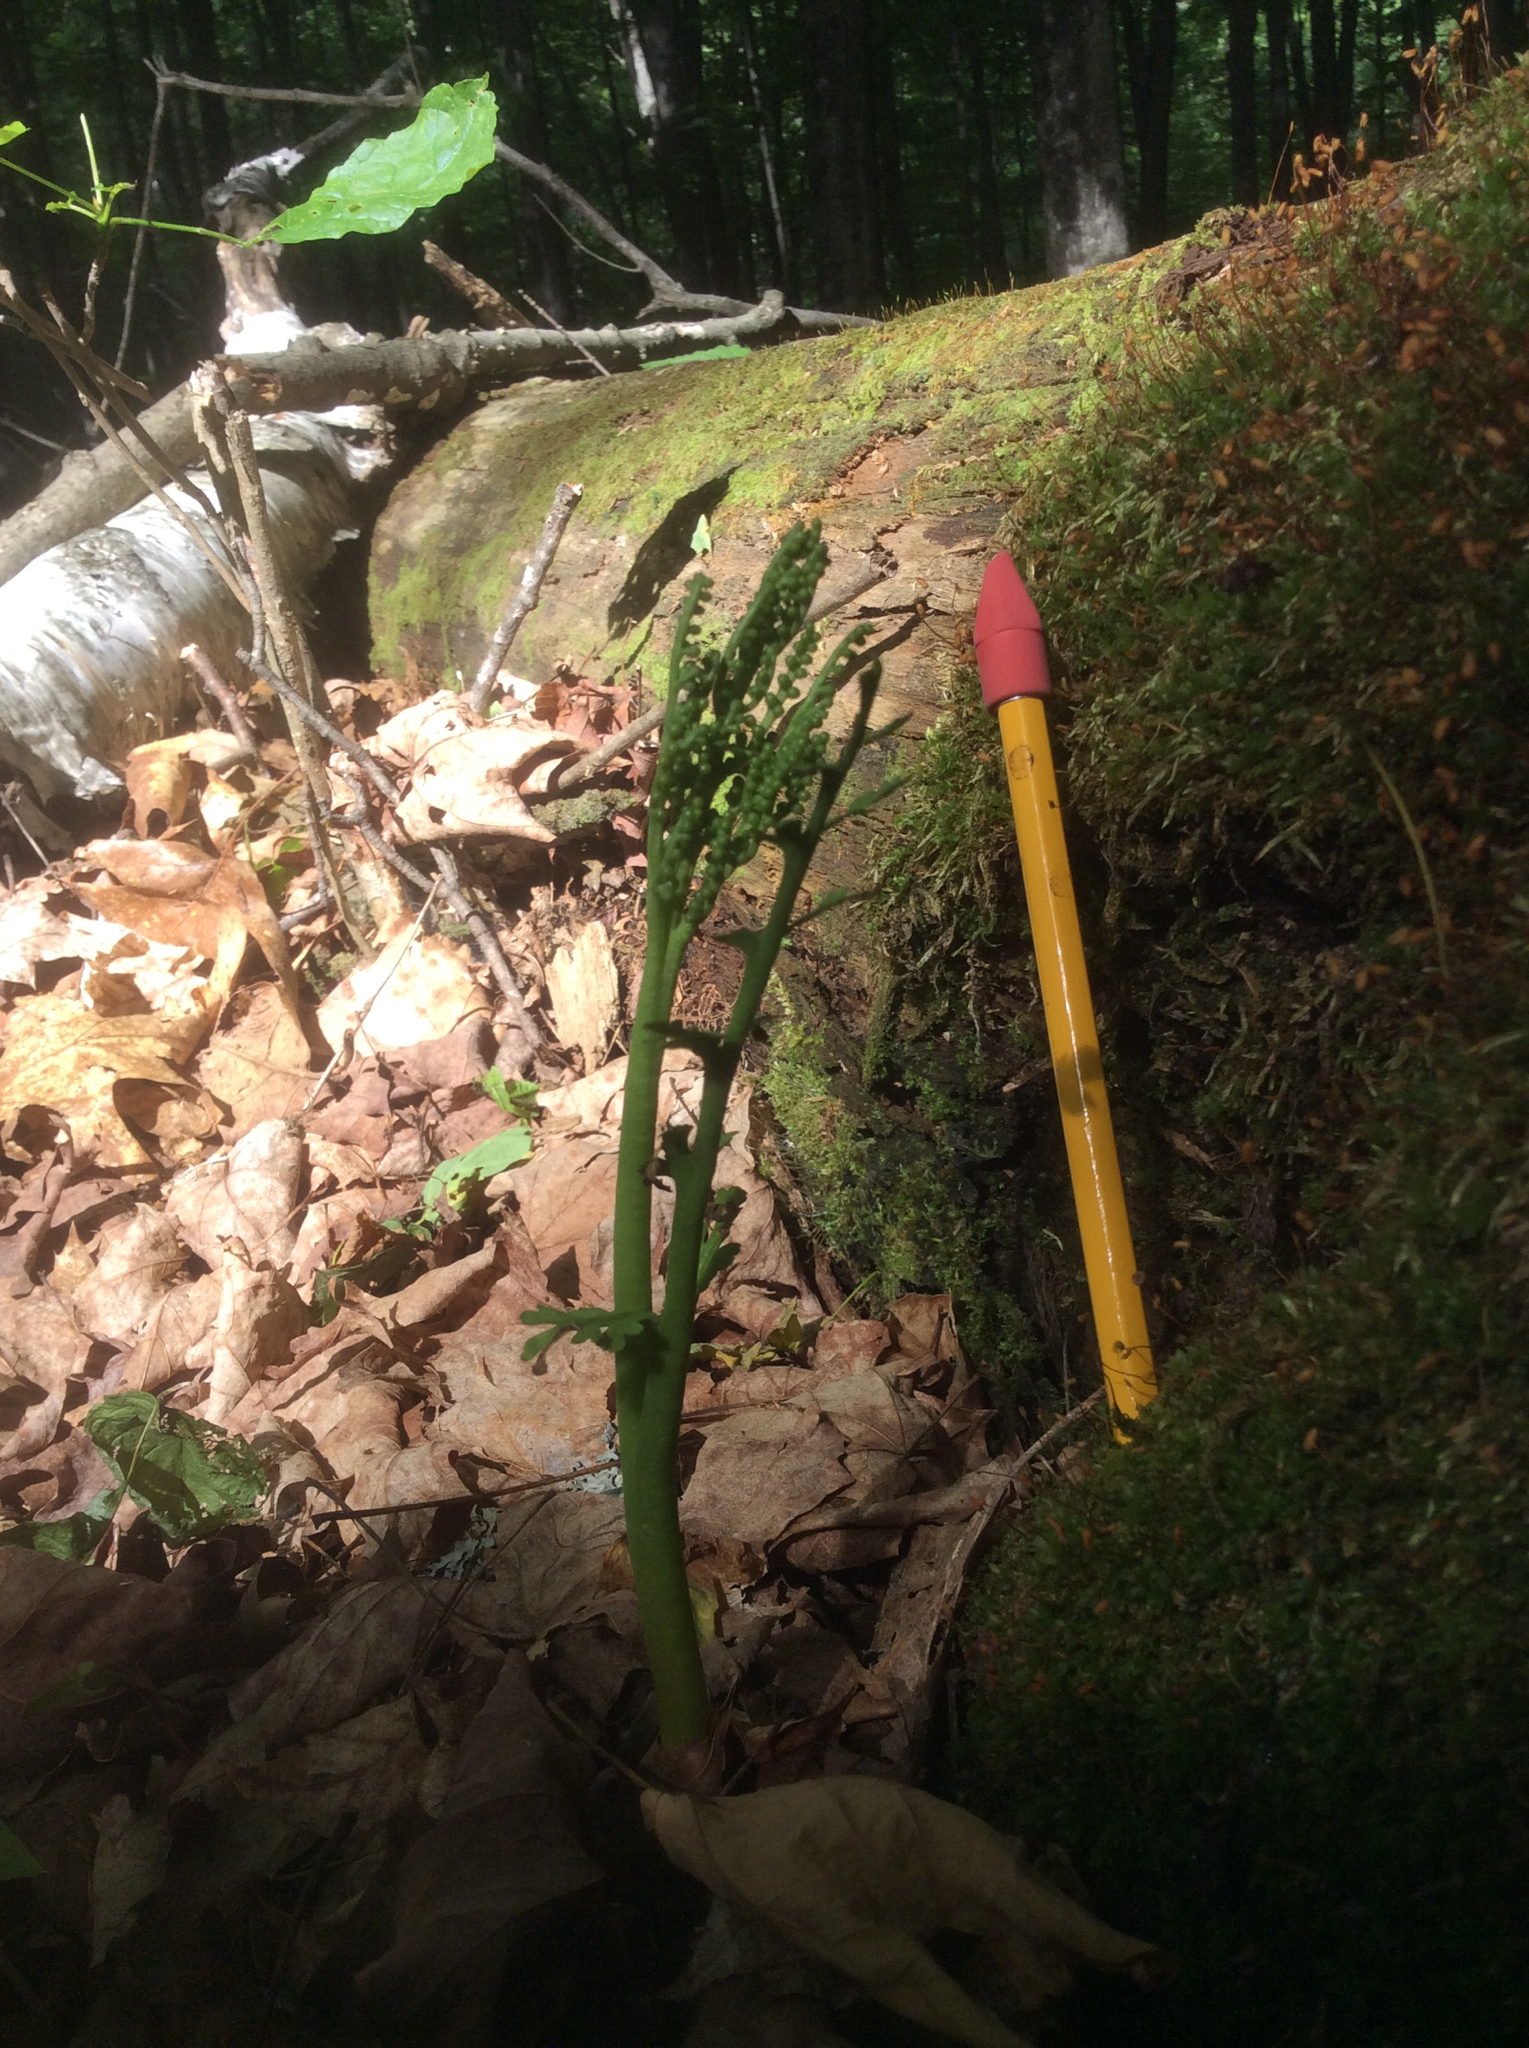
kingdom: Plantae
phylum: Tracheophyta
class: Polypodiopsida
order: Ophioglossales
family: Ophioglossaceae
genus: Botrychium
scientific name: Botrychium matricariifolium
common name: Branched moonwort
